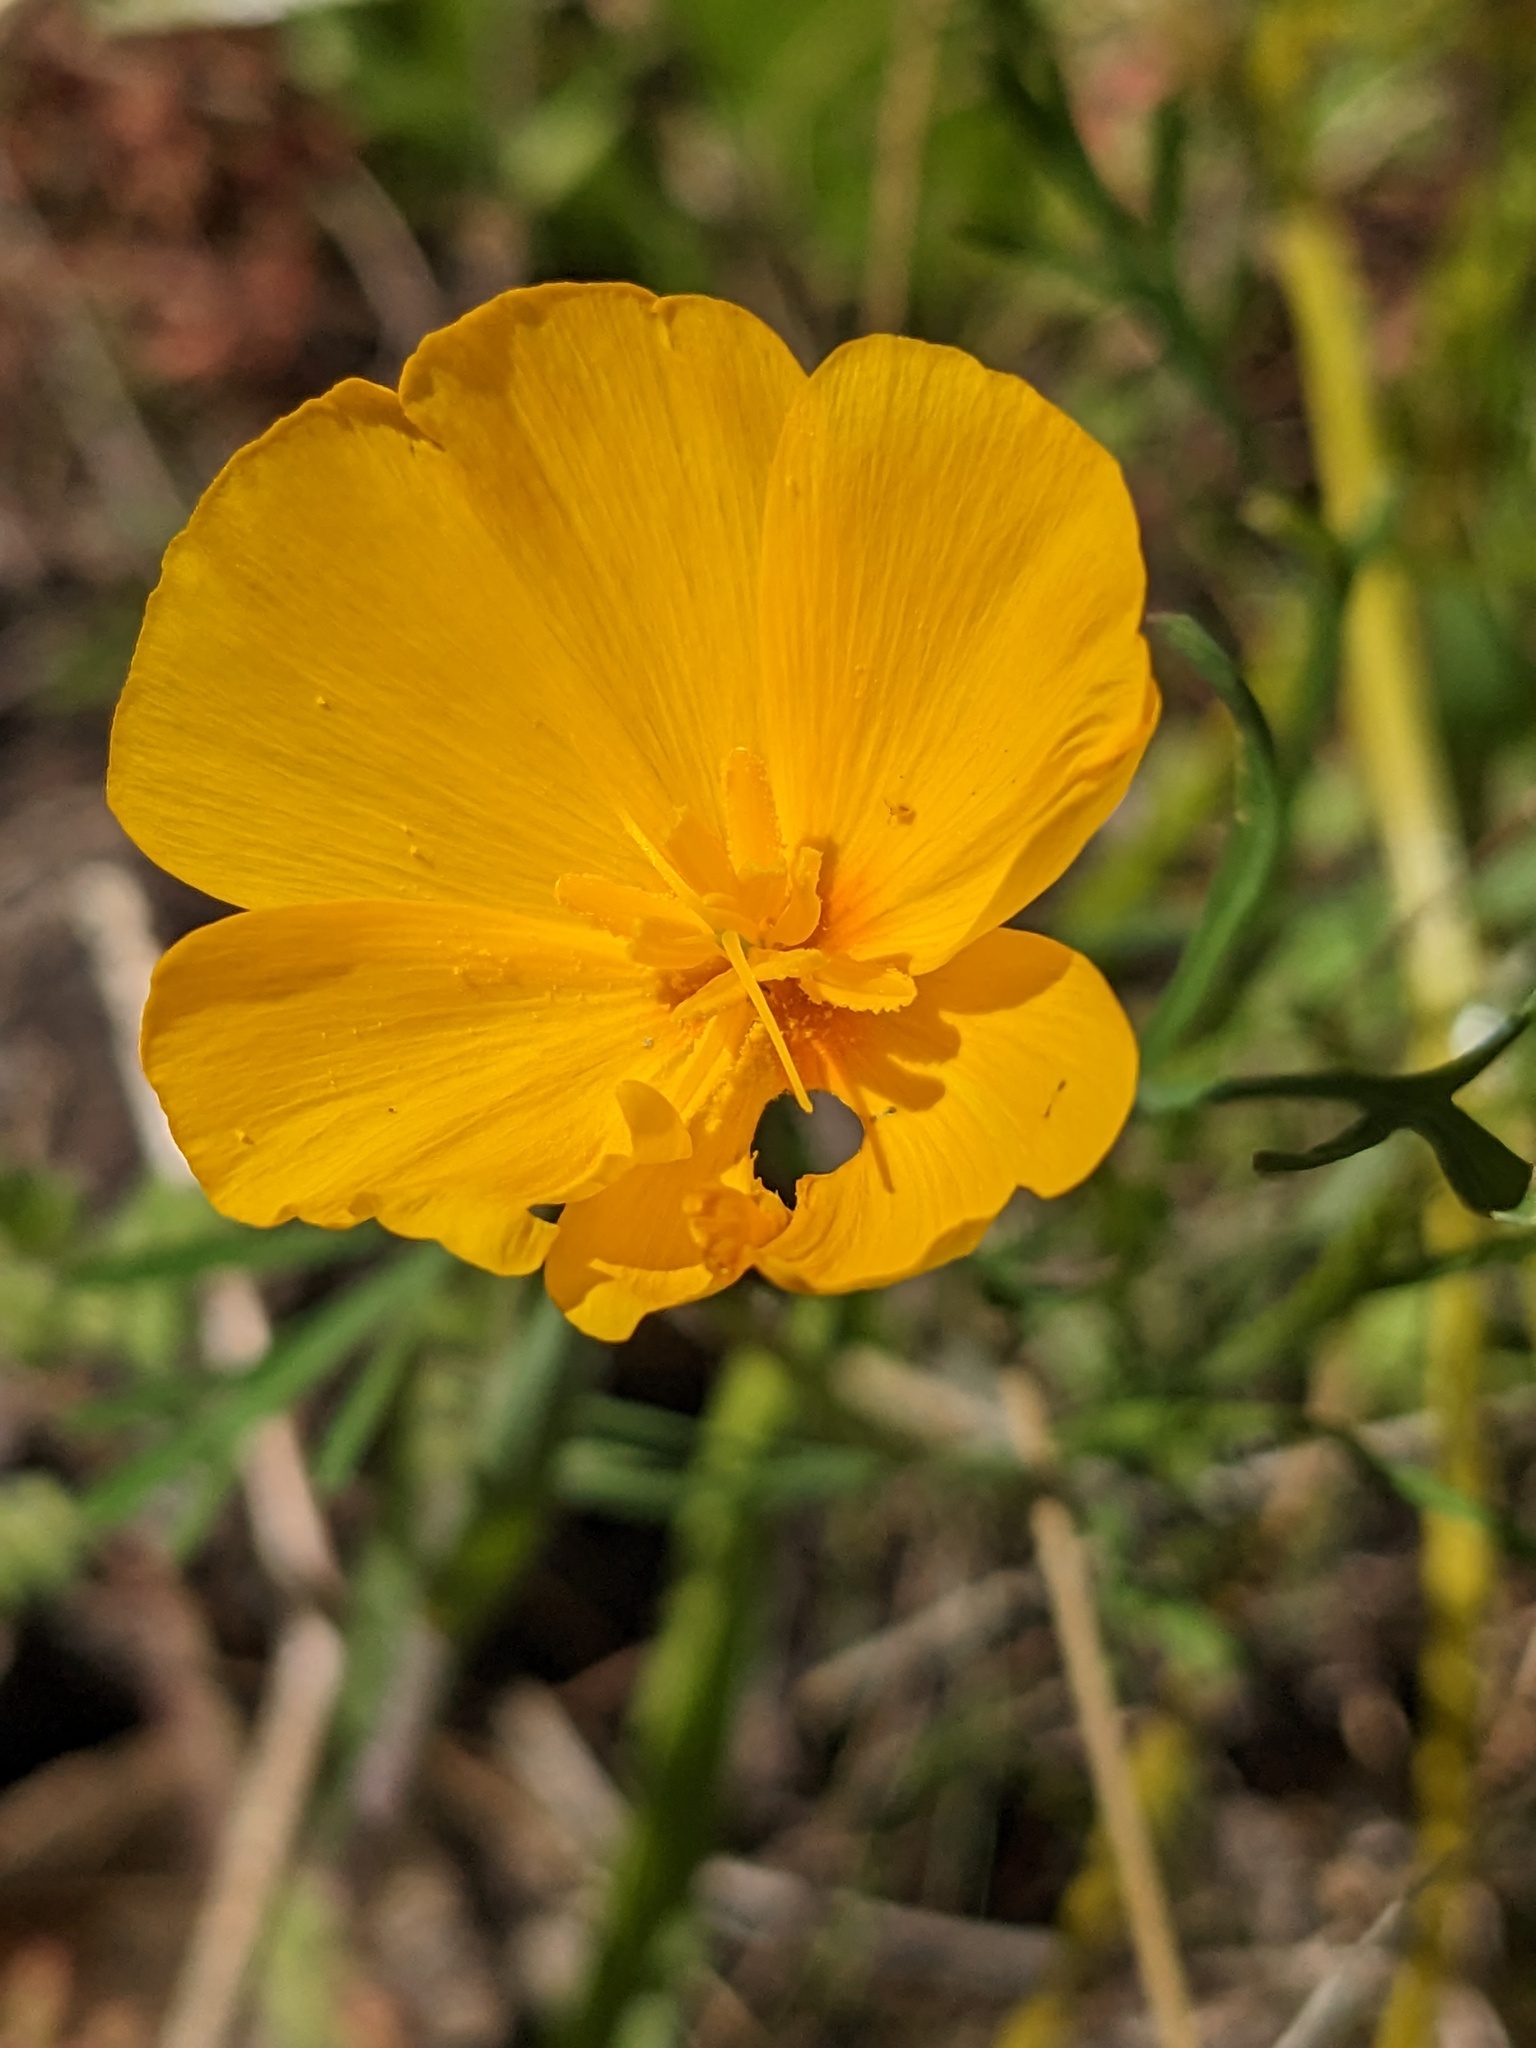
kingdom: Plantae
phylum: Tracheophyta
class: Magnoliopsida
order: Ranunculales
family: Papaveraceae
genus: Eschscholzia
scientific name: Eschscholzia caespitosa
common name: Tufted california-poppy
